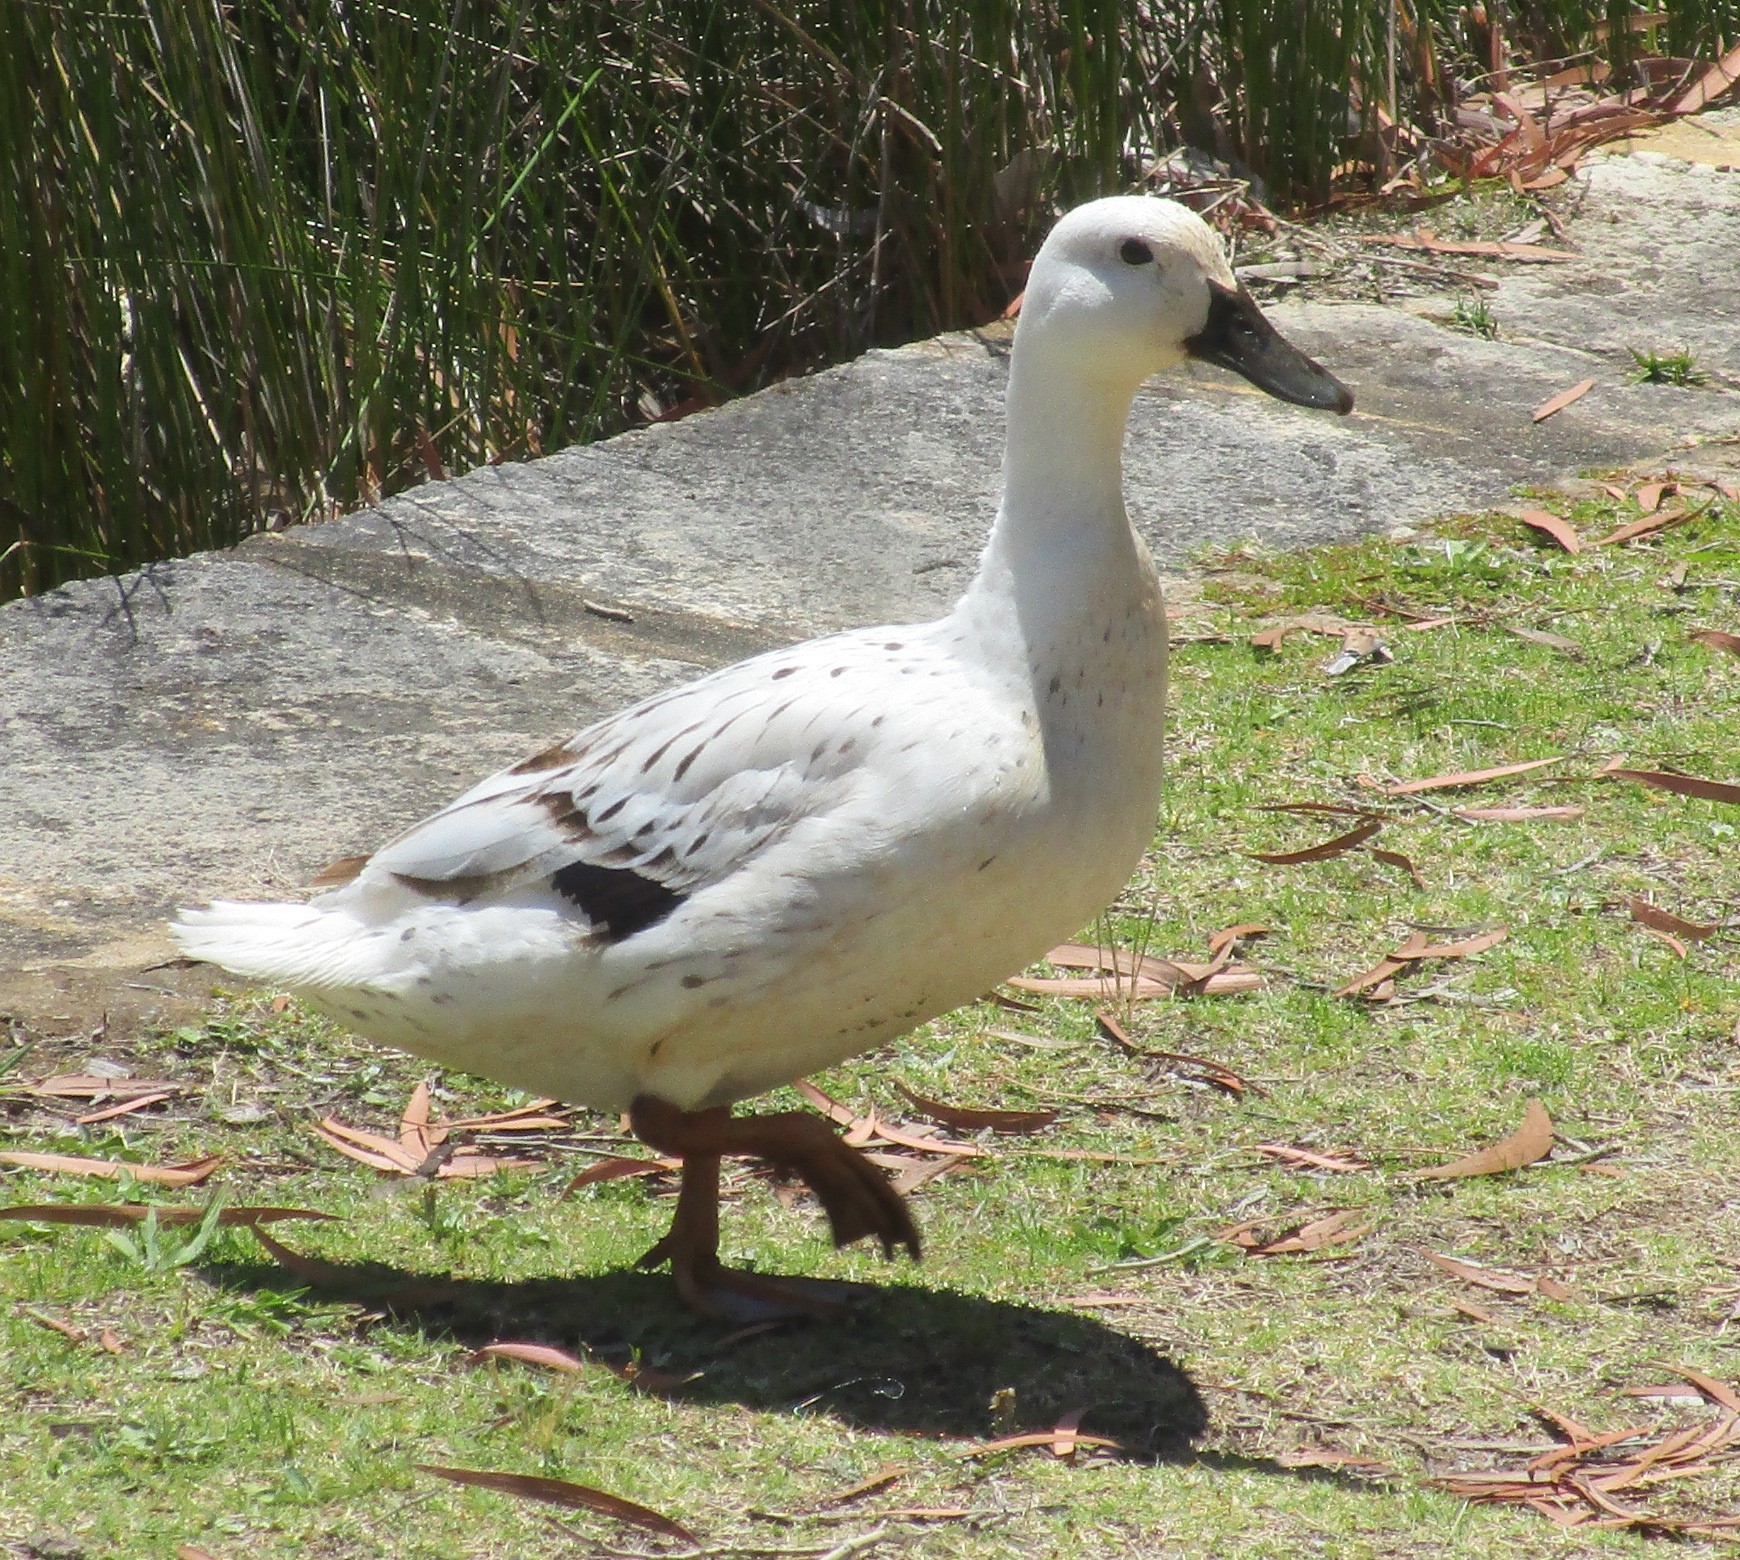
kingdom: Animalia
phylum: Chordata
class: Aves
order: Anseriformes
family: Anatidae
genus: Anas
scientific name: Anas platyrhynchos
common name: Mallard
